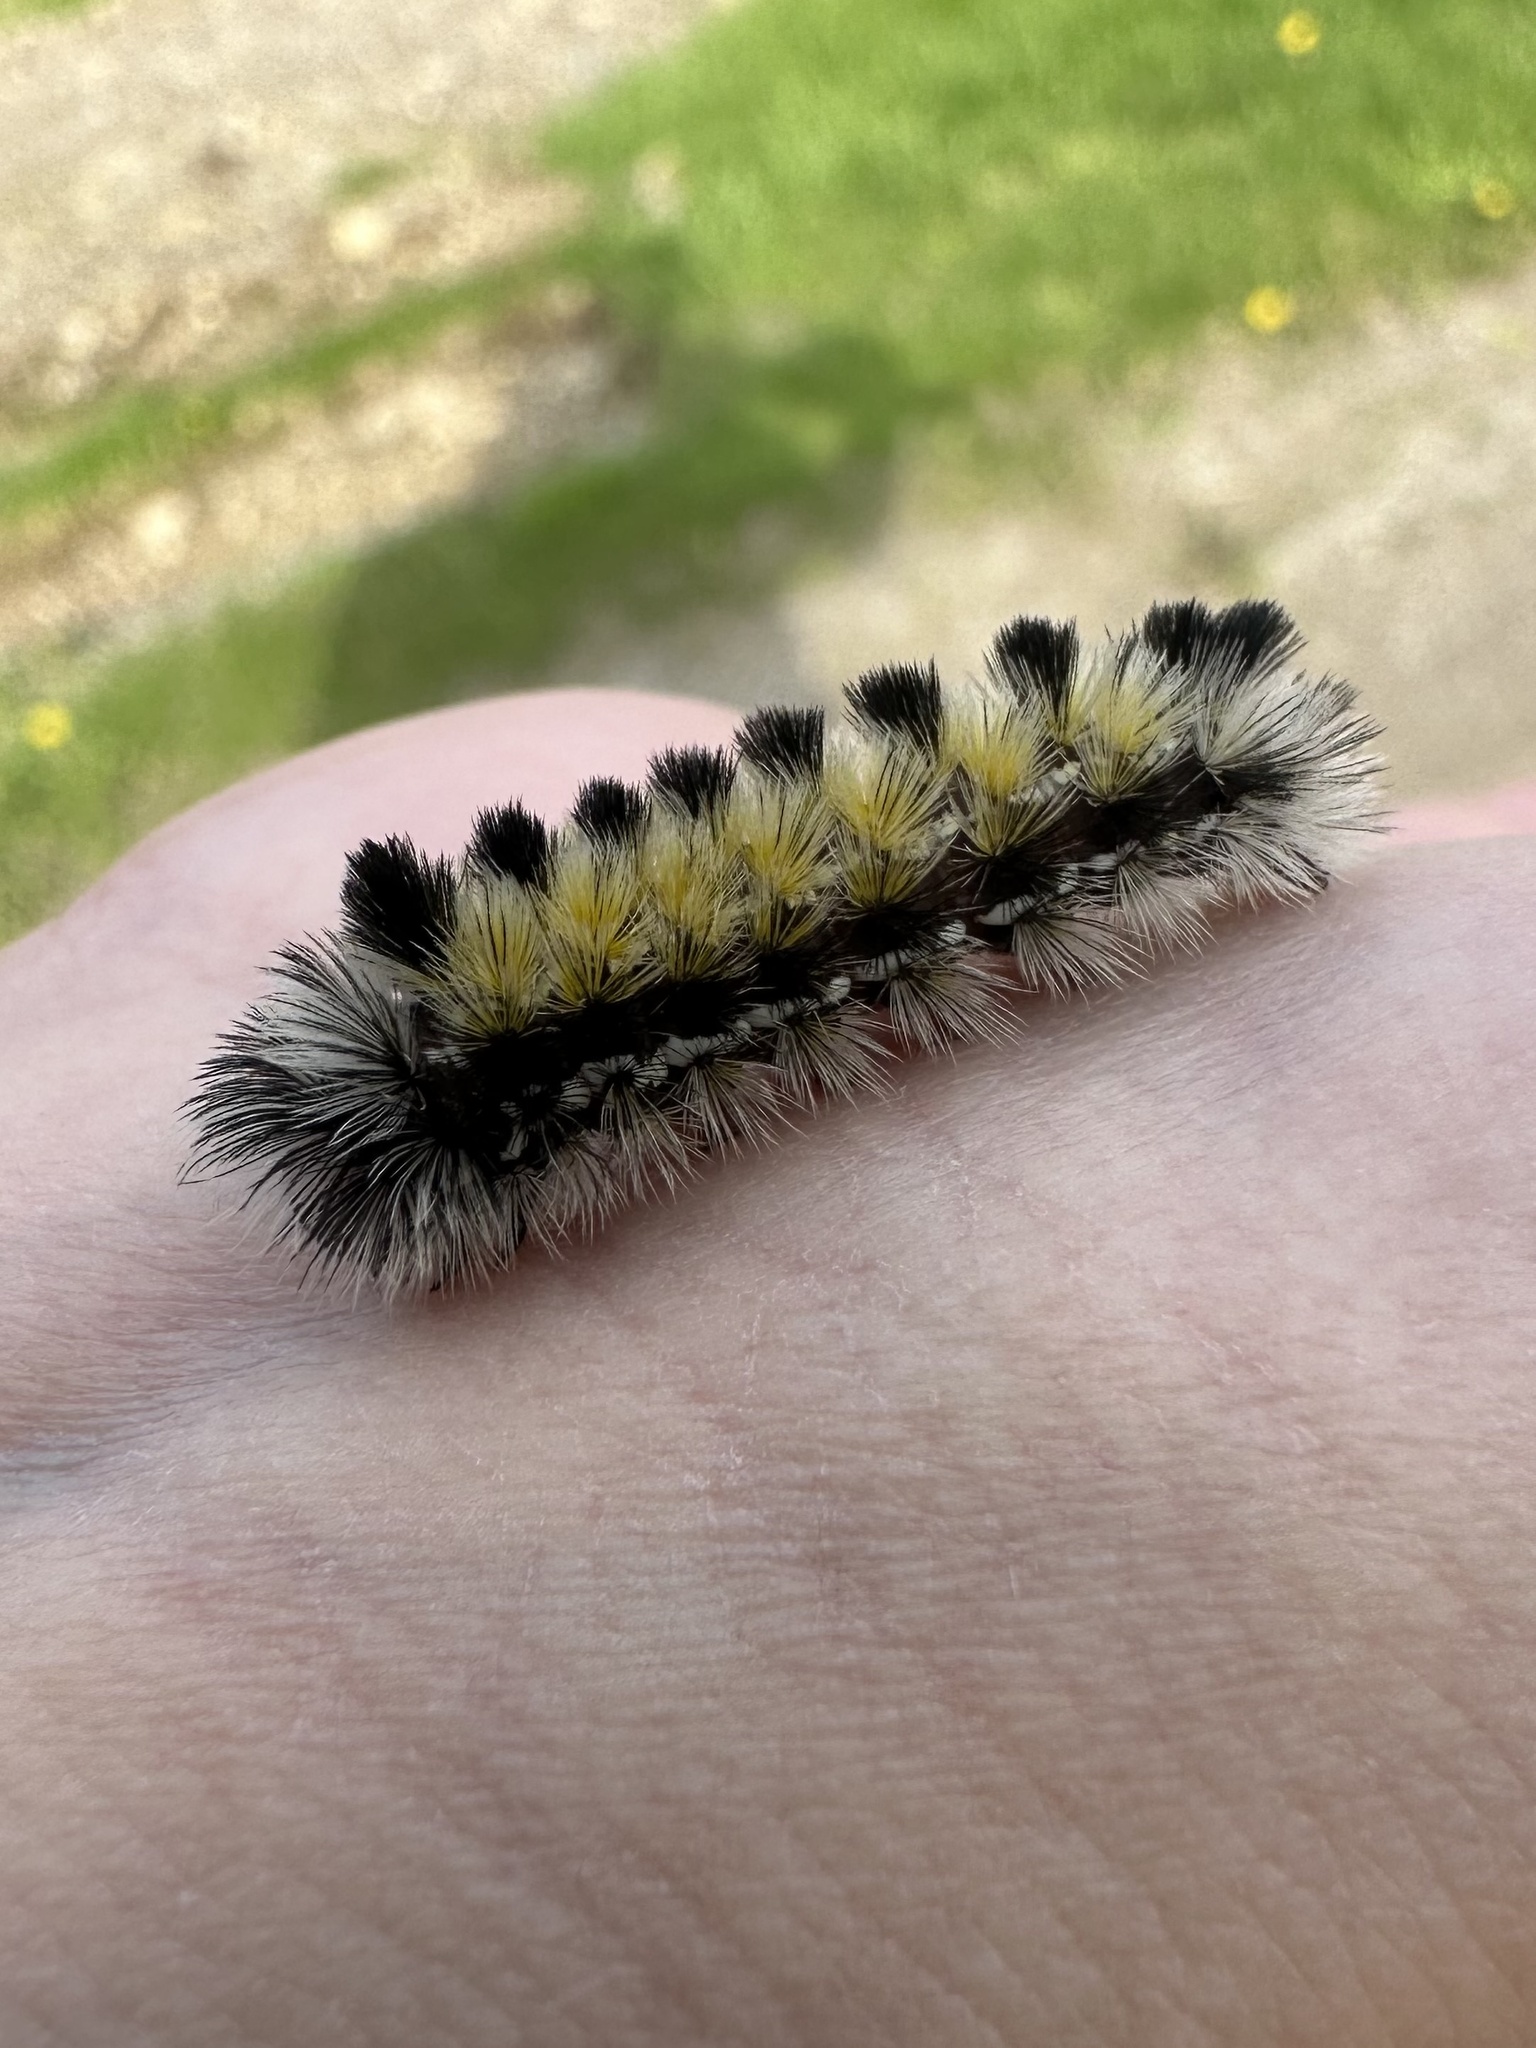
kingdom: Animalia
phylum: Arthropoda
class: Insecta
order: Lepidoptera
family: Erebidae
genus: Ctenucha
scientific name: Ctenucha virginica
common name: Virginia ctenucha moth
